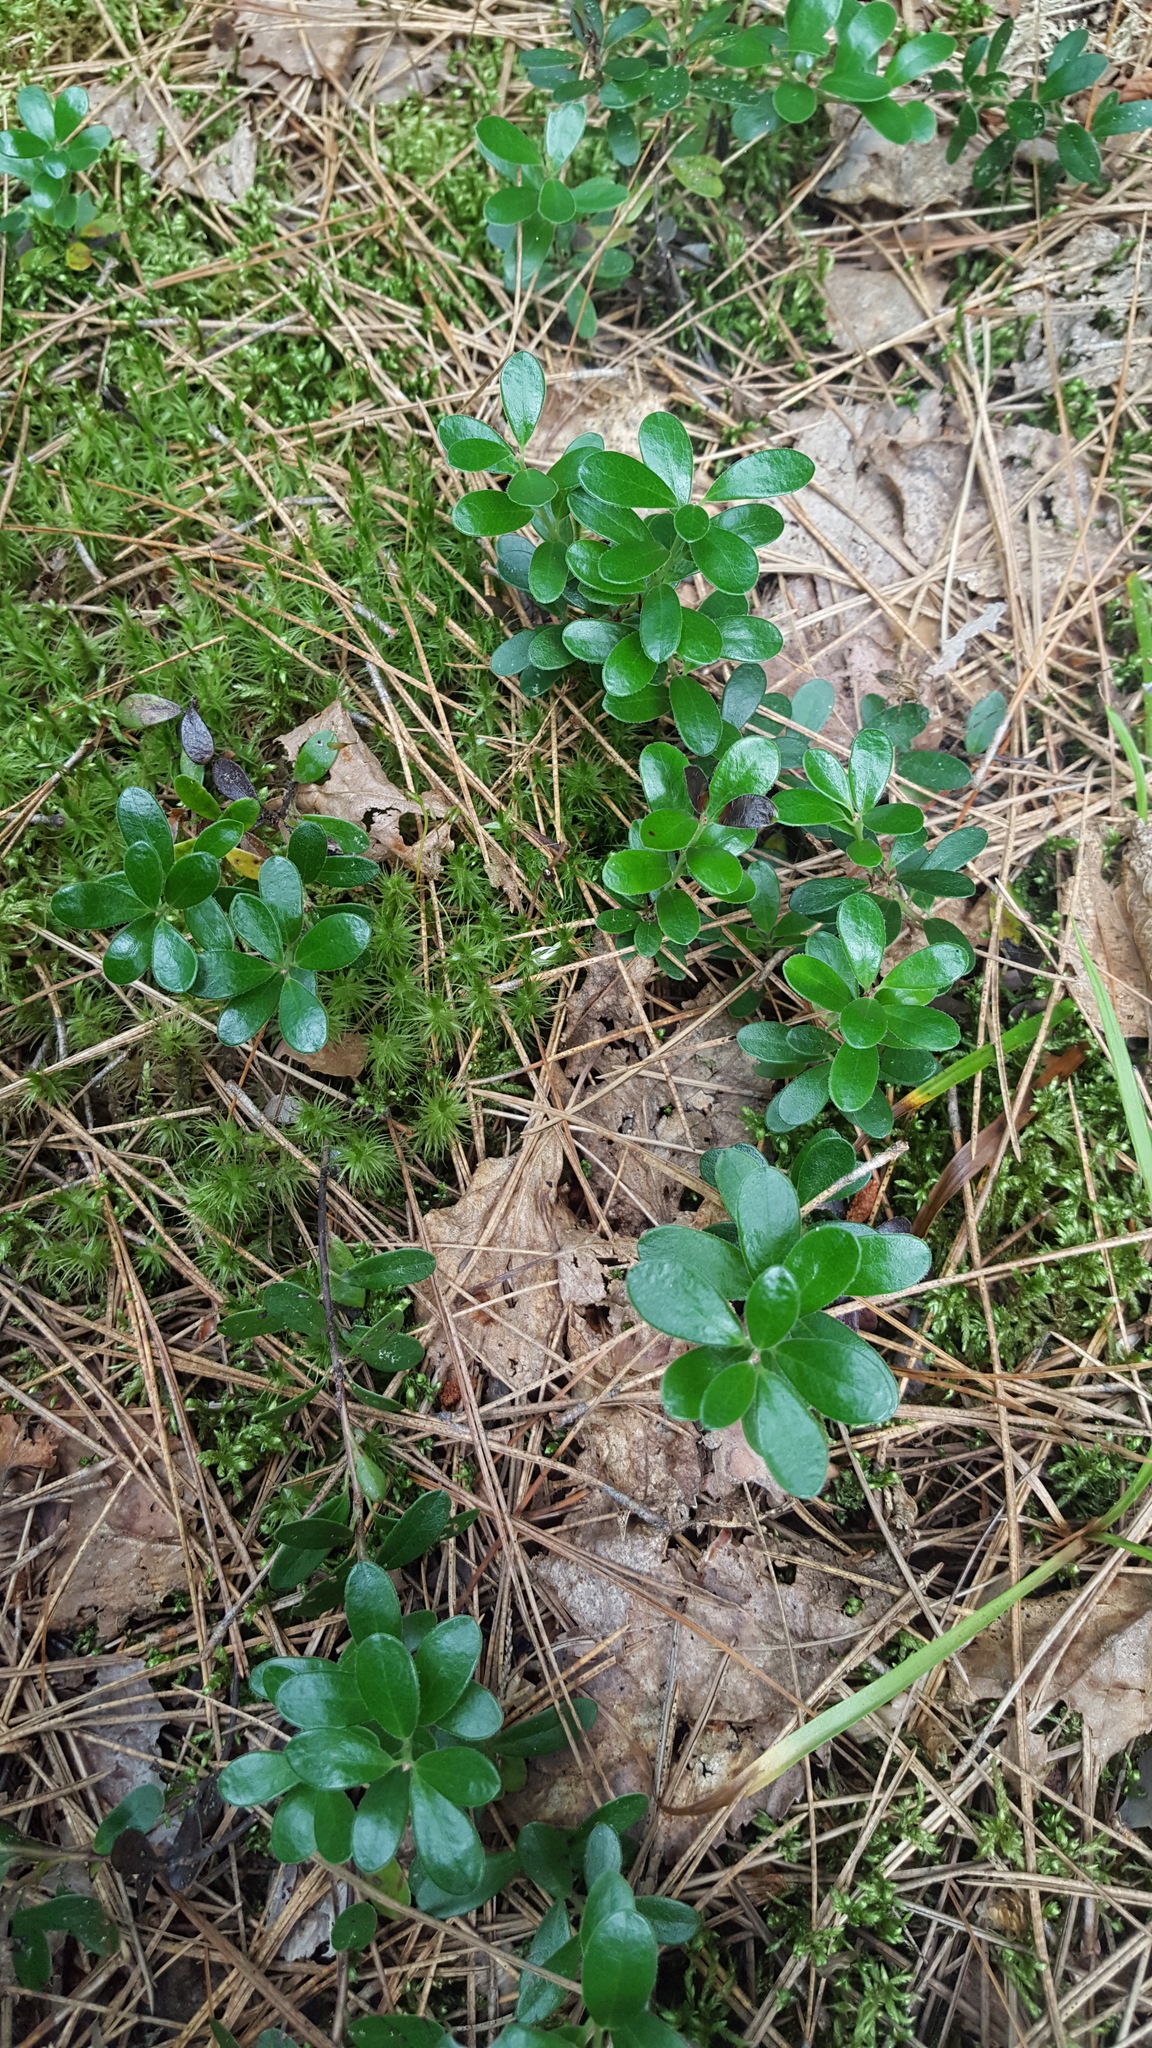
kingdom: Plantae
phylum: Tracheophyta
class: Magnoliopsida
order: Ericales
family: Ericaceae
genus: Arctostaphylos
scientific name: Arctostaphylos uva-ursi
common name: Bearberry
